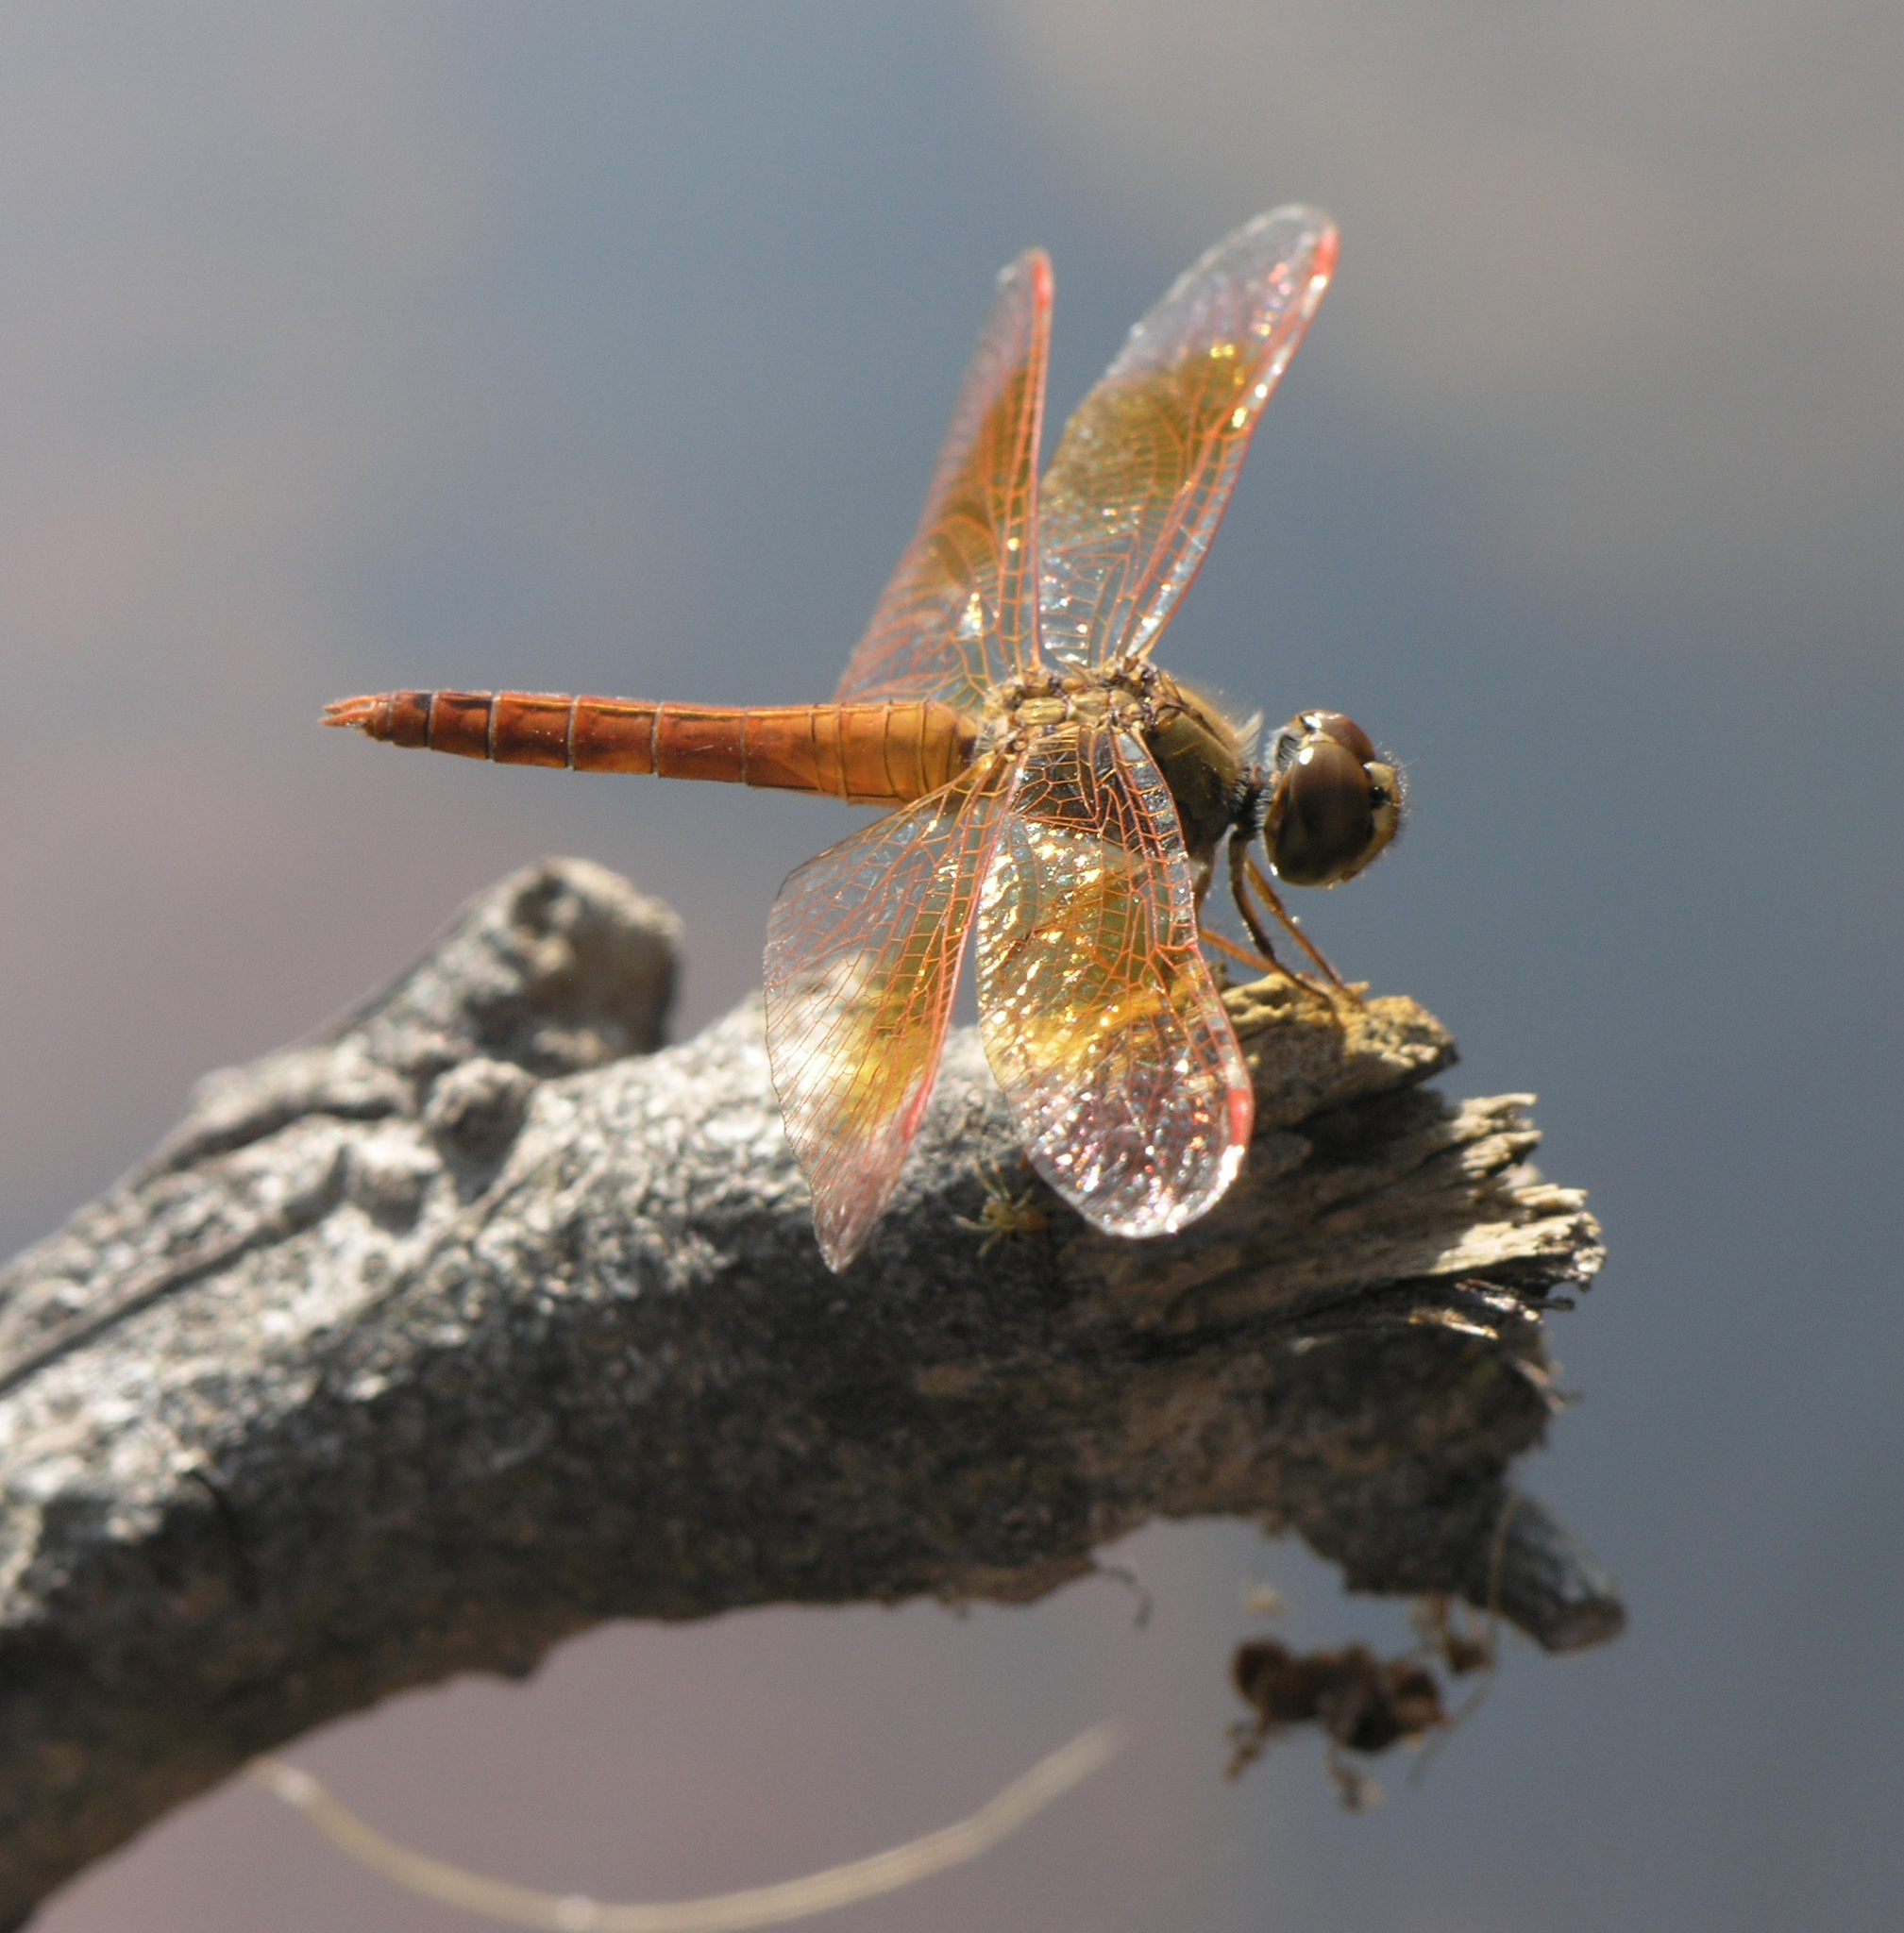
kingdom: Animalia
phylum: Arthropoda
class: Insecta
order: Odonata
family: Libellulidae
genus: Brachythemis
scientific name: Brachythemis contaminata
